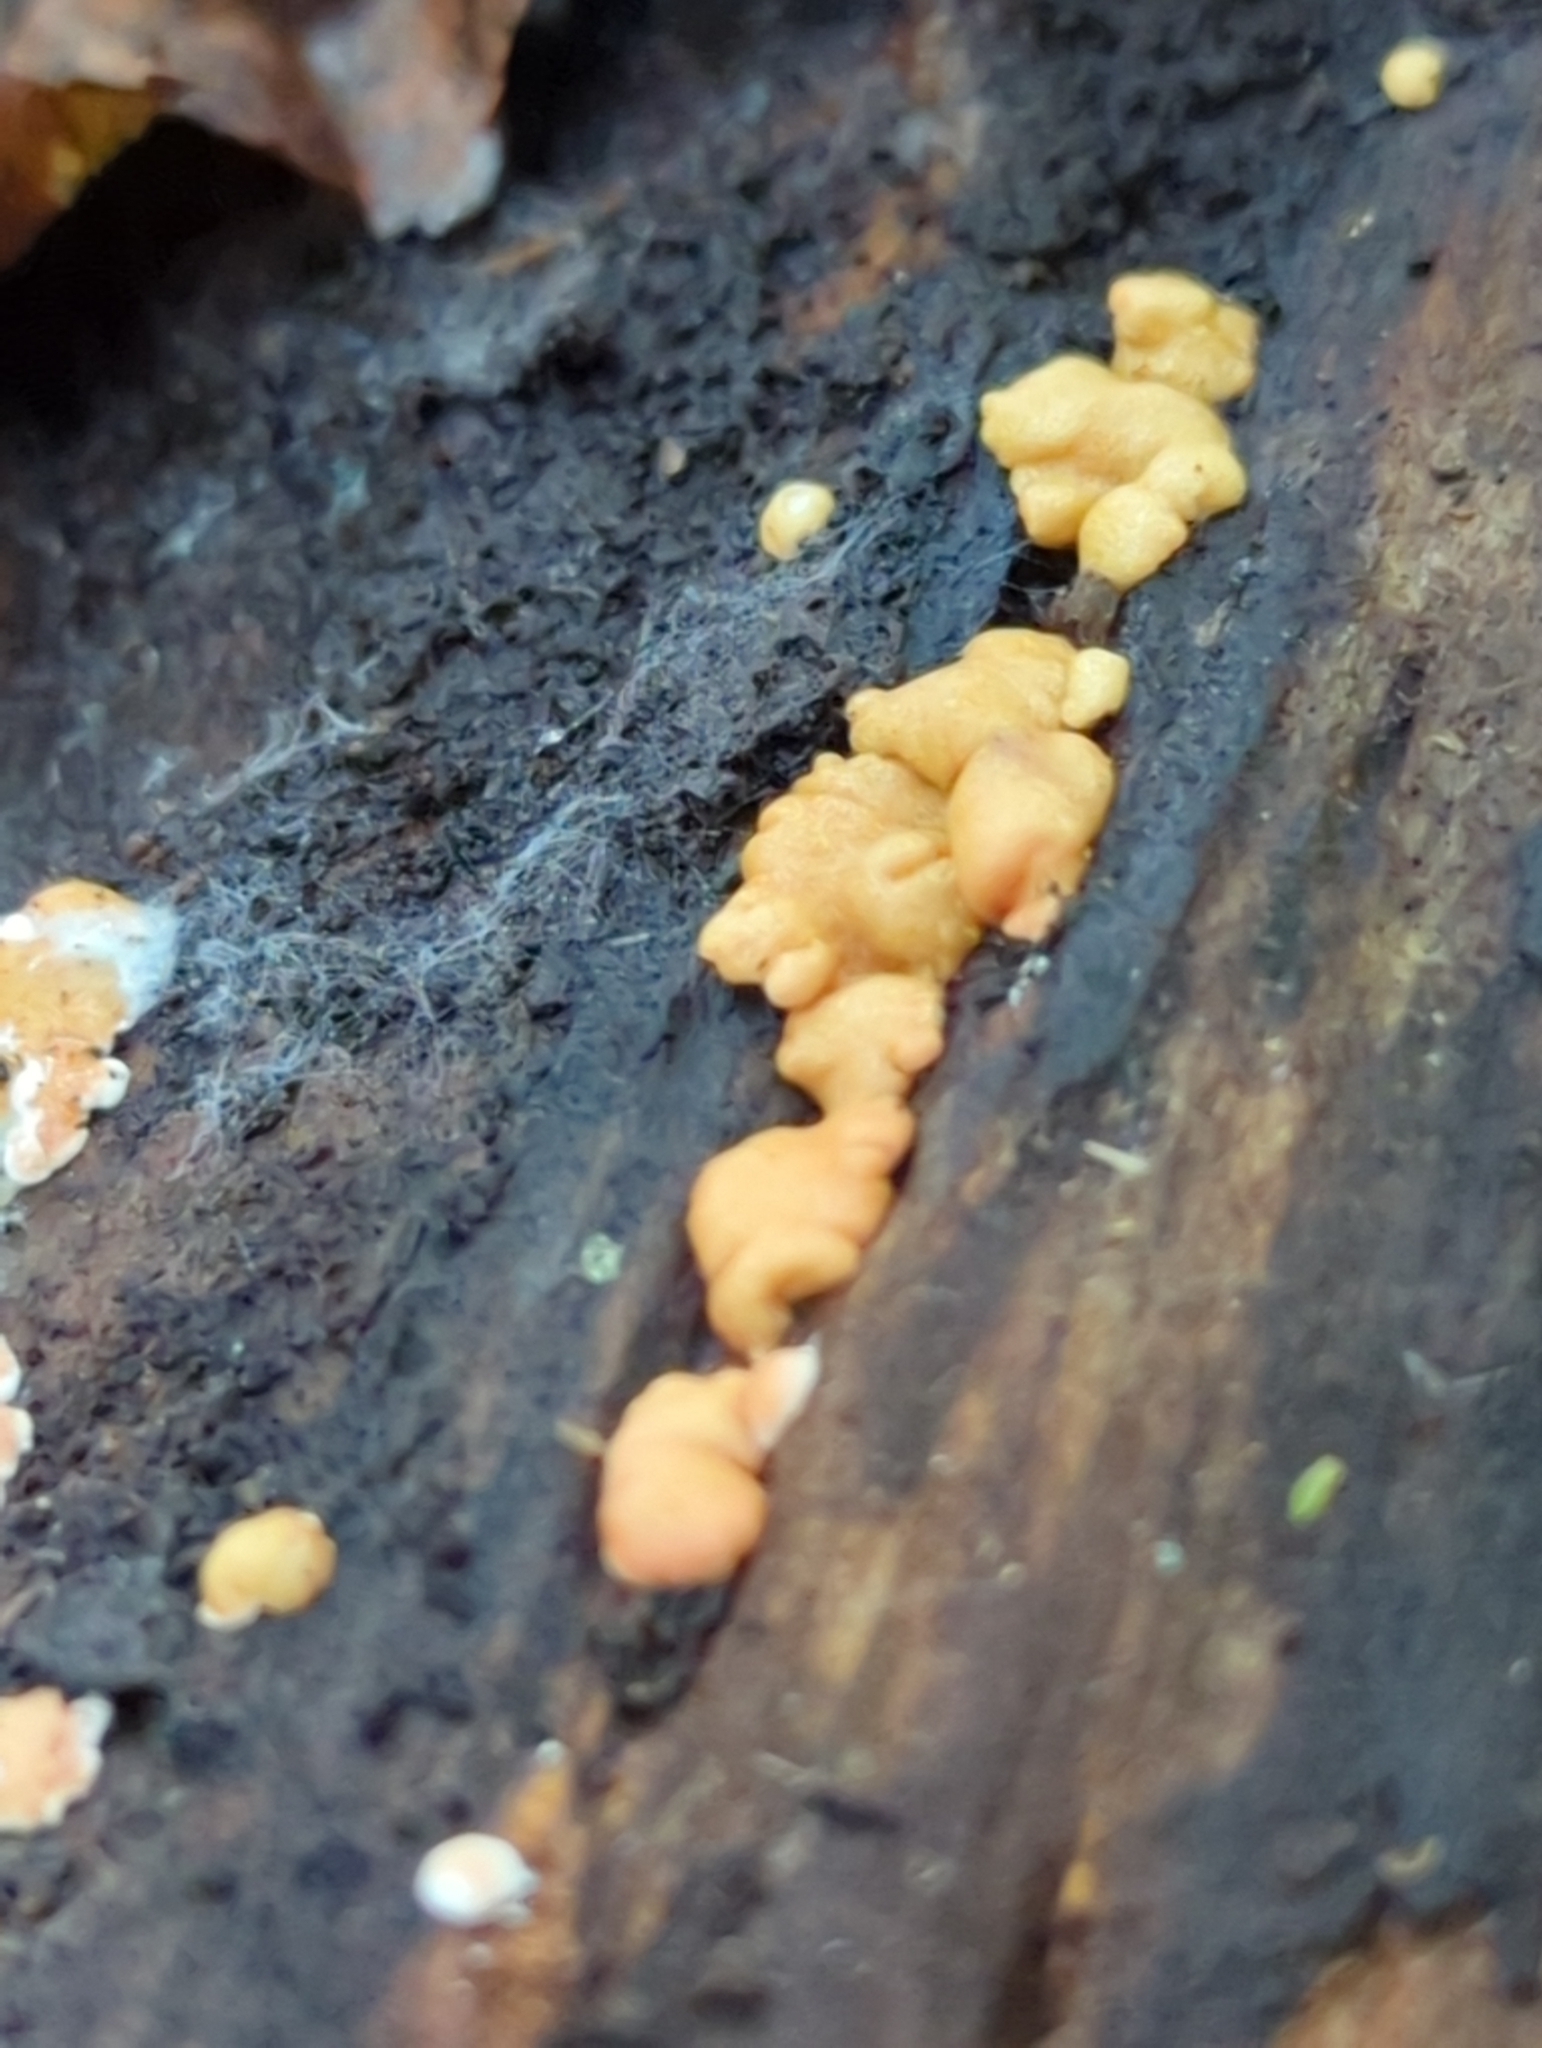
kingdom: Fungi
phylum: Ascomycota
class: Sordariomycetes
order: Hypocreales
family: Hypocreaceae
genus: Trichoderma
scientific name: Trichoderma minutisporum
